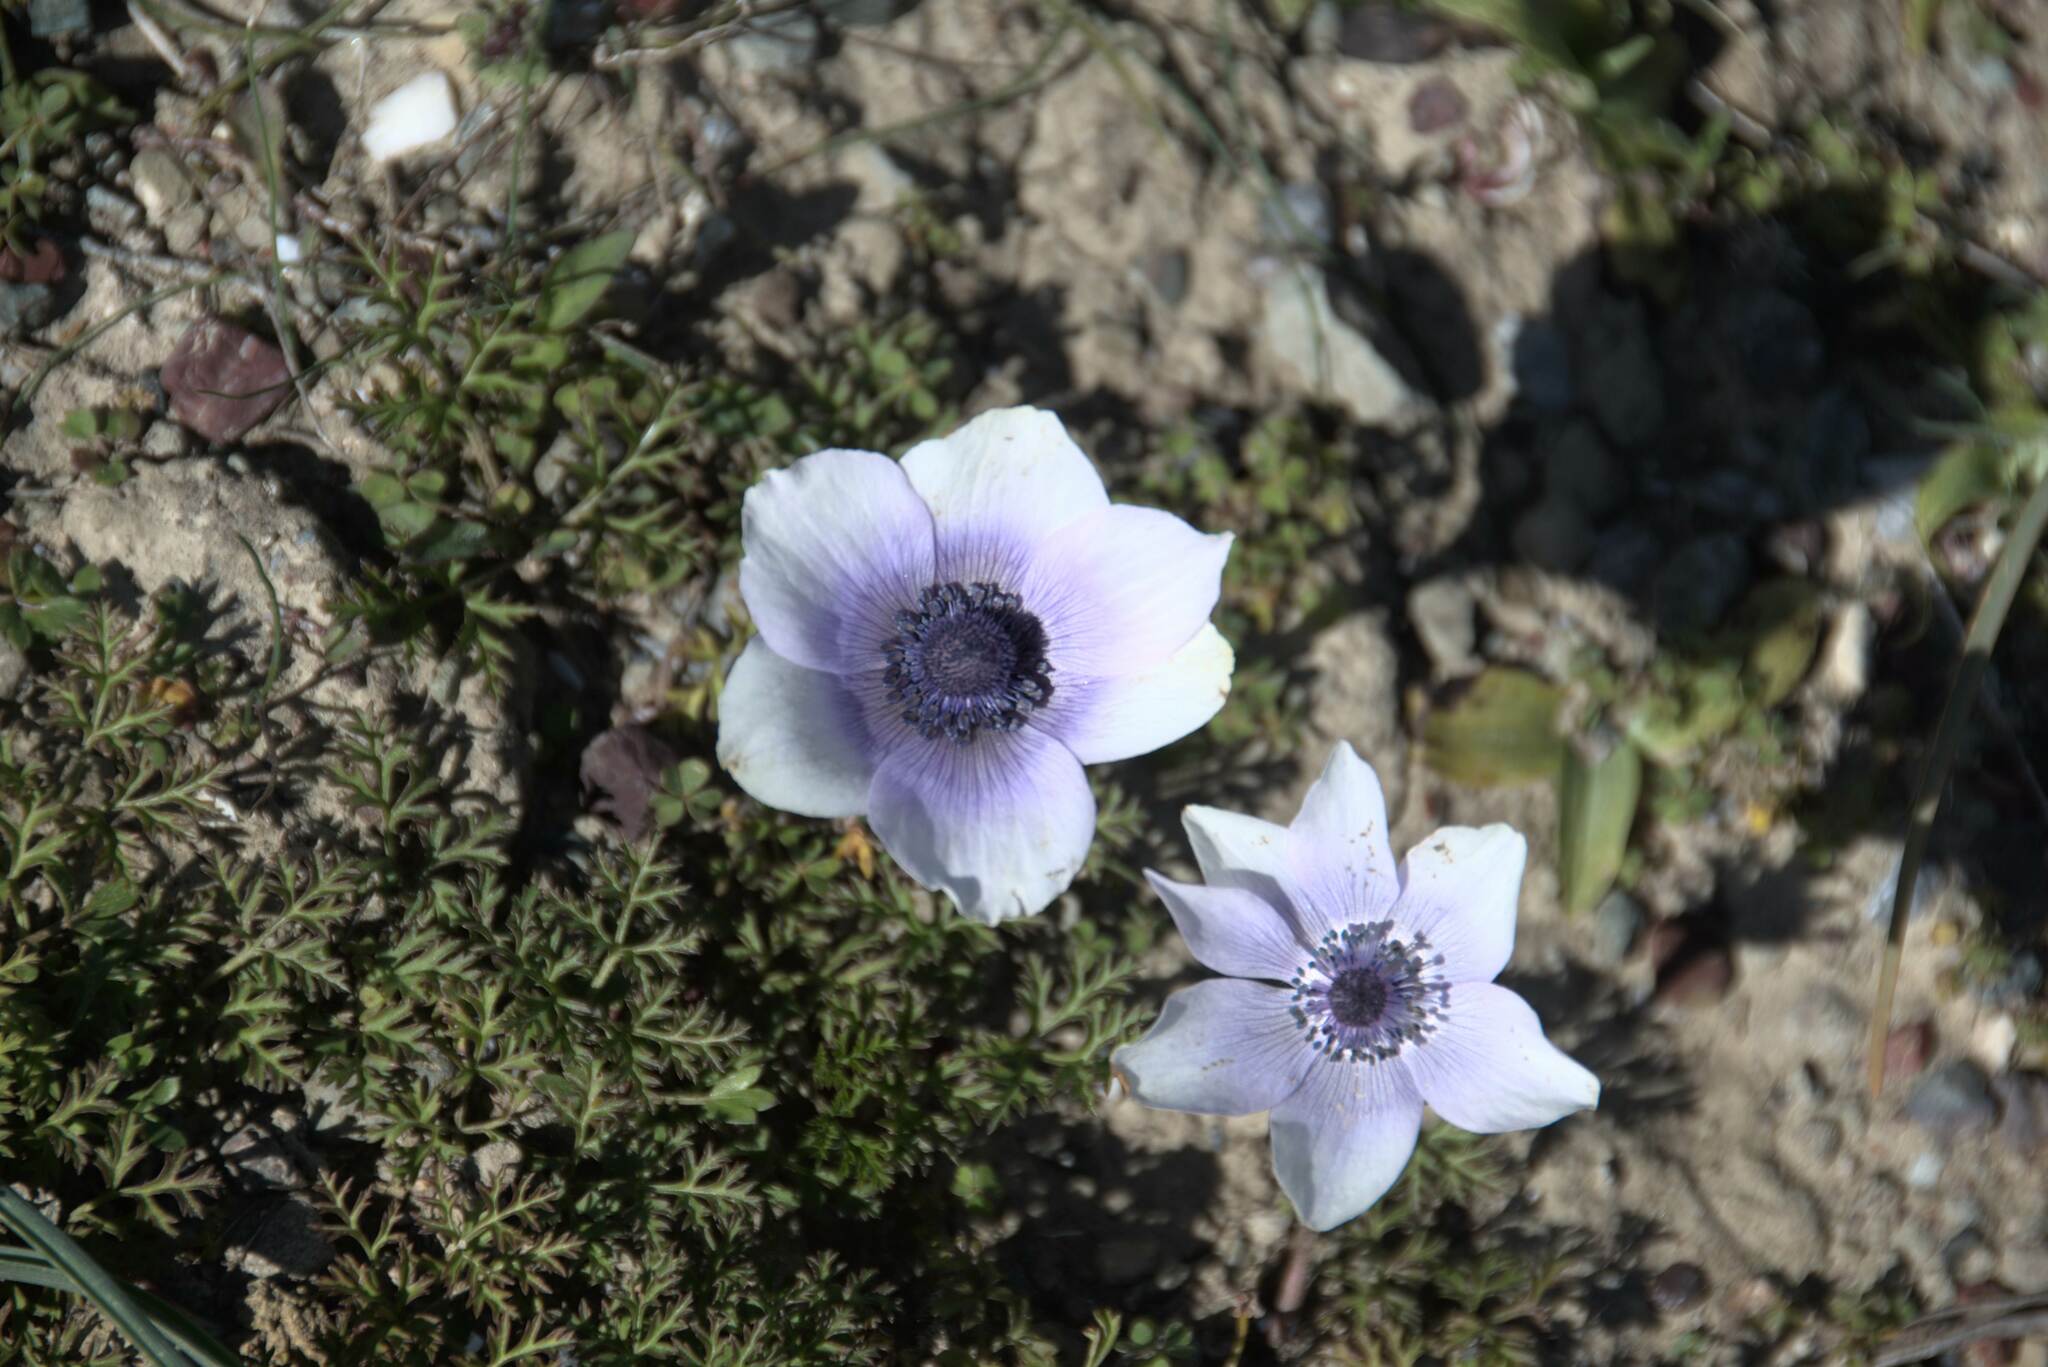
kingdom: Plantae
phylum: Tracheophyta
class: Magnoliopsida
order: Ranunculales
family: Ranunculaceae
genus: Anemone
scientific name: Anemone coronaria
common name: Poppy anemone
